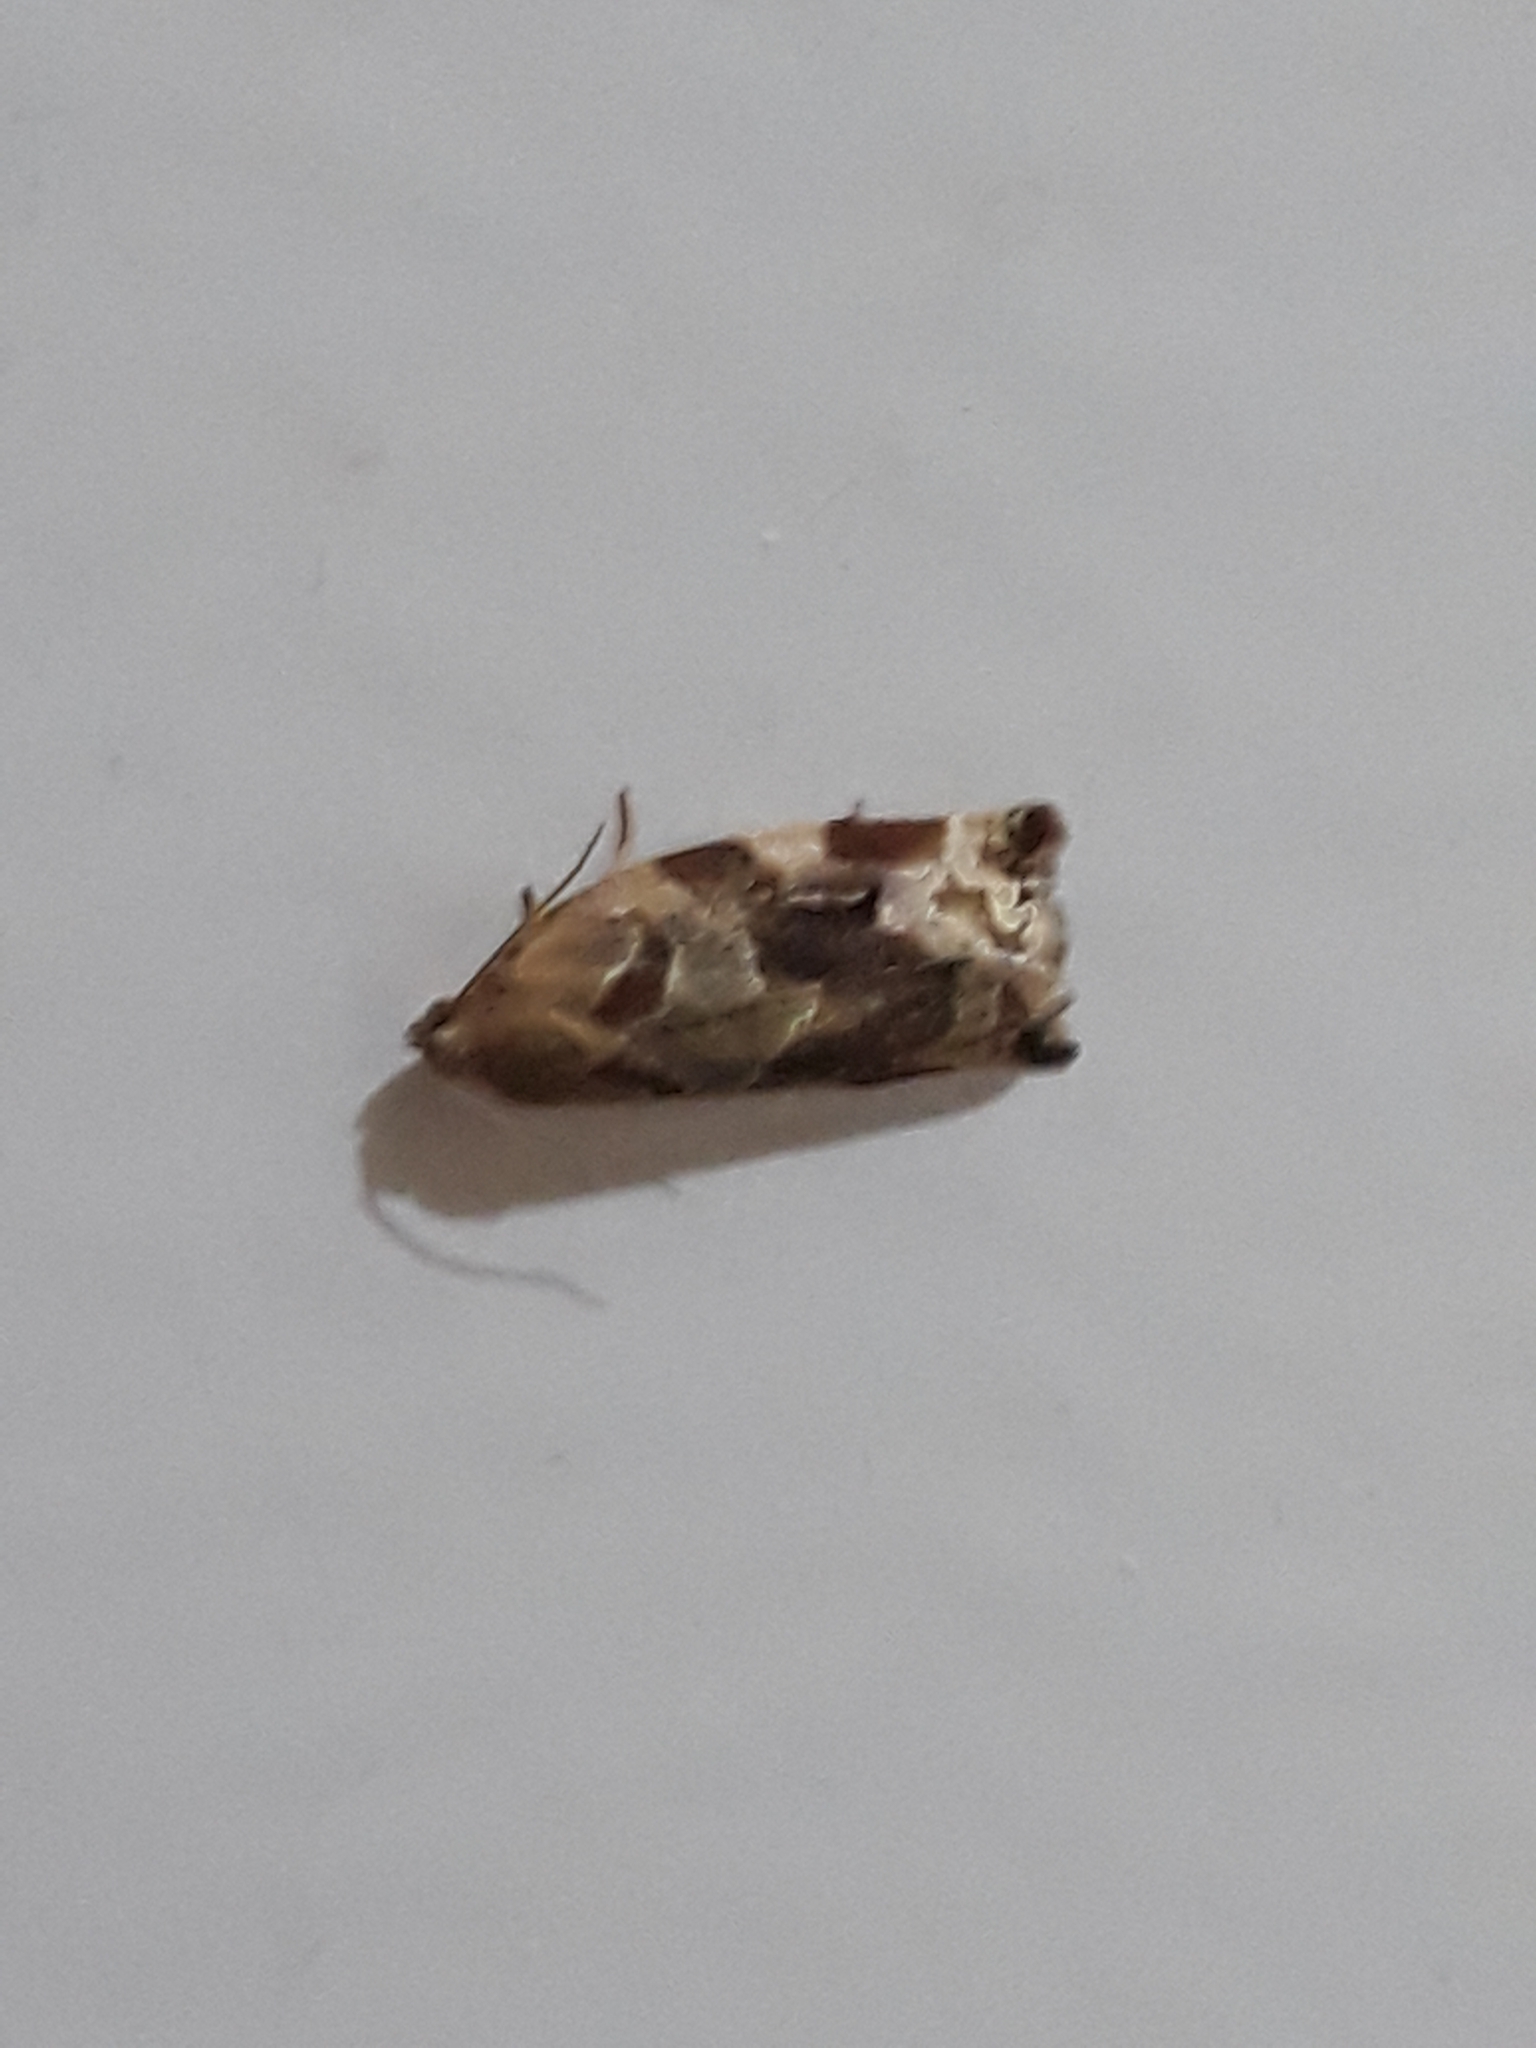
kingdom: Animalia
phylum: Arthropoda
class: Insecta
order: Lepidoptera
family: Tortricidae
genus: Archips
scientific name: Archips xylosteana
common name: Variegated golden tortrix
